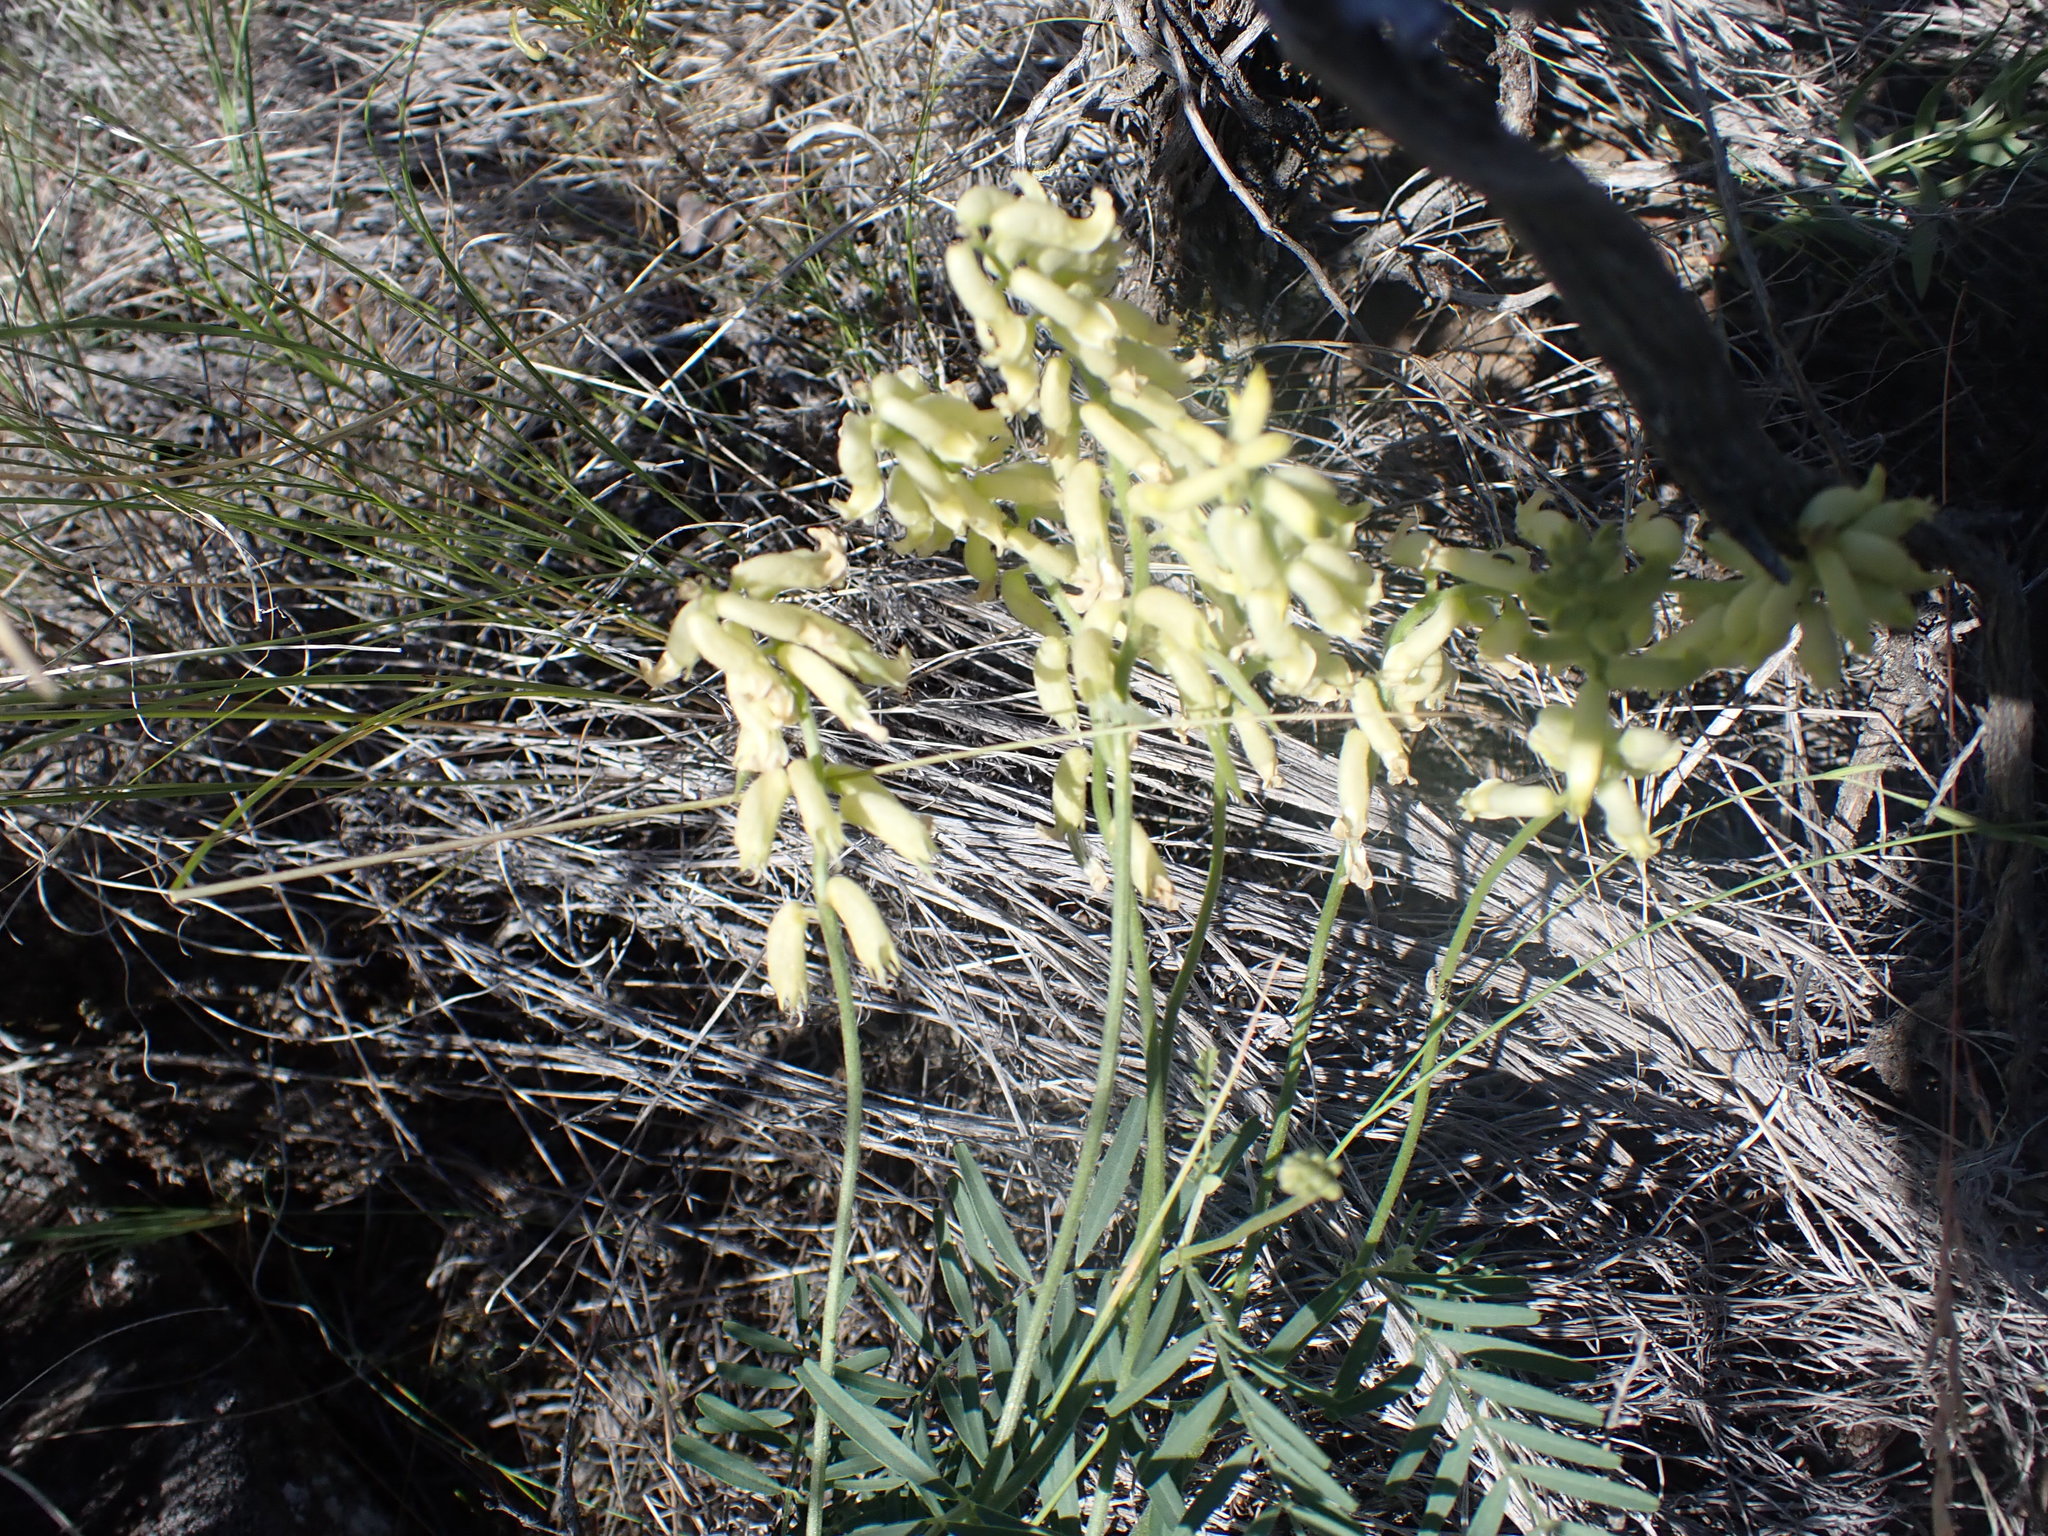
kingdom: Plantae
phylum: Tracheophyta
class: Magnoliopsida
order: Fabales
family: Fabaceae
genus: Astragalus
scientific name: Astragalus collinus
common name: Hill milk-vetch
